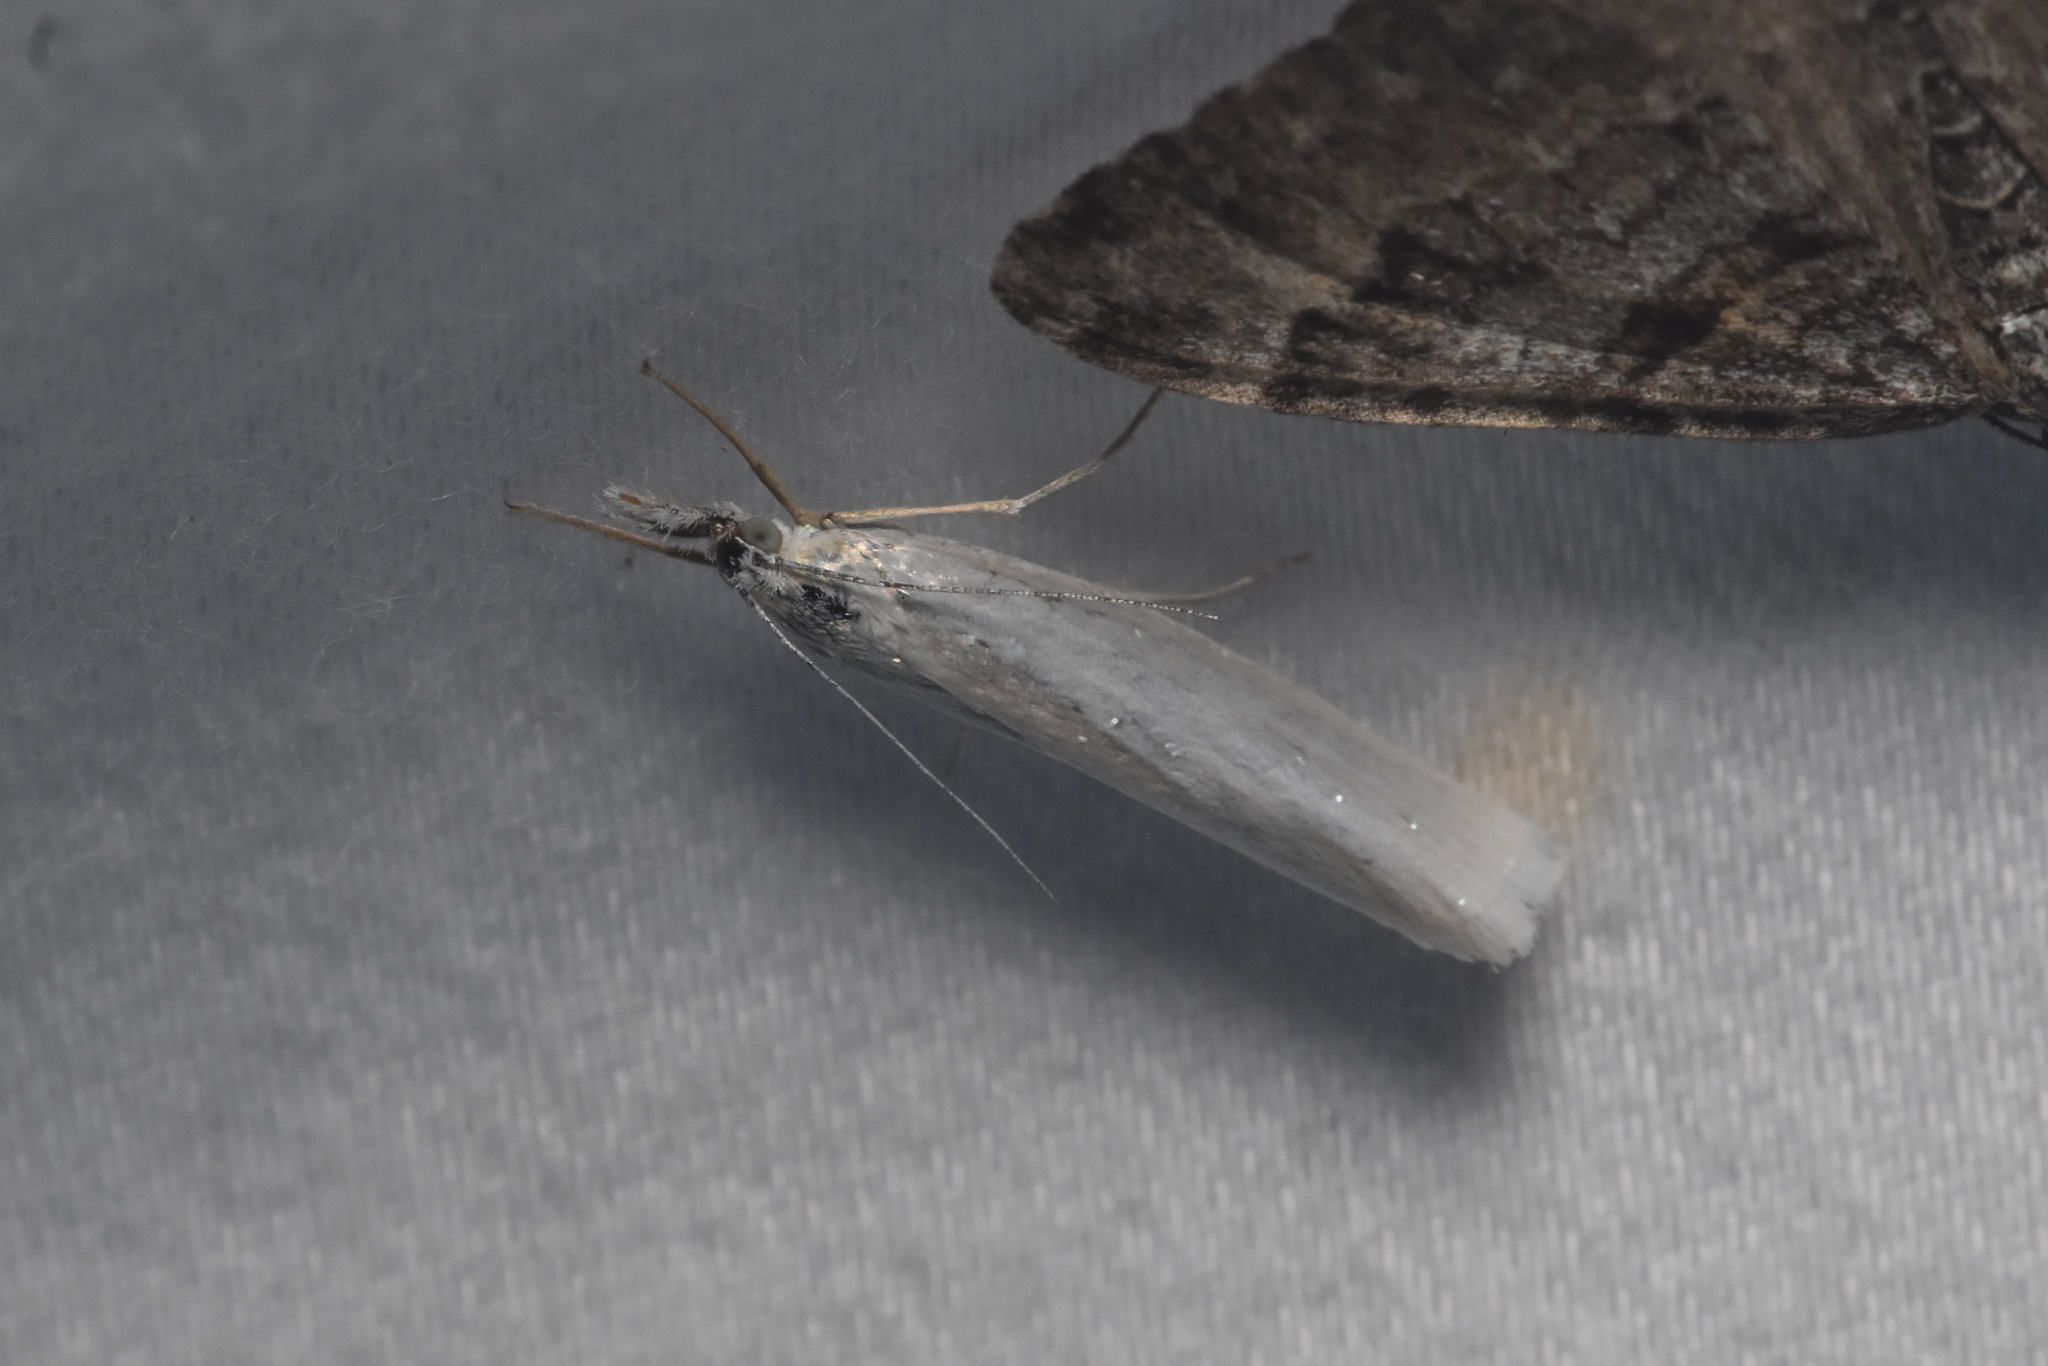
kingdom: Animalia
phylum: Arthropoda
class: Insecta
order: Lepidoptera
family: Crambidae
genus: Crambus
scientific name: Crambus perlellus
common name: Yellow satin veneer
